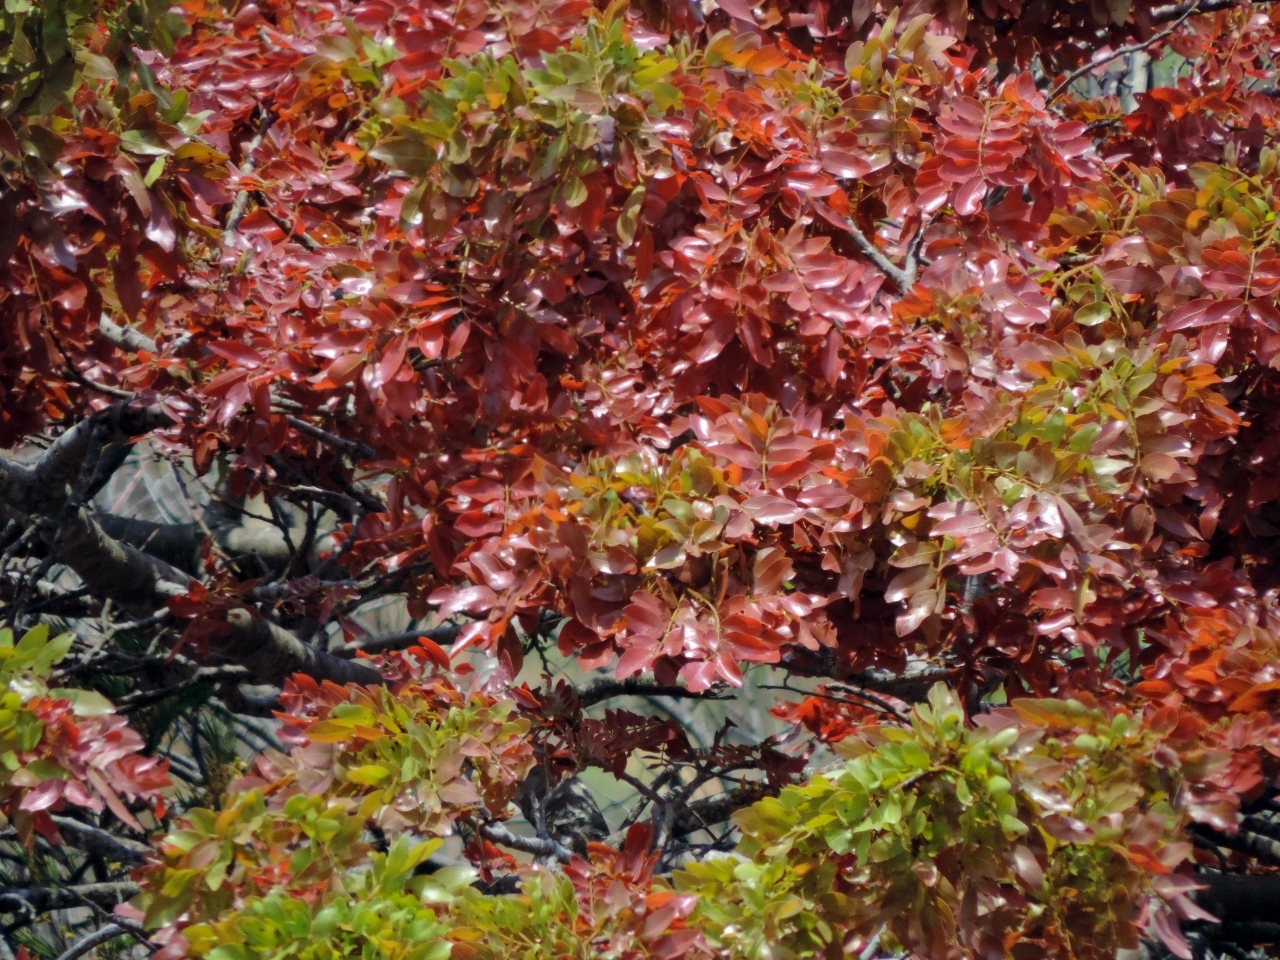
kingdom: Plantae
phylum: Tracheophyta
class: Magnoliopsida
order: Fabales
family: Fabaceae
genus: Brachystegia
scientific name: Brachystegia spiciformis
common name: Zebrawood
